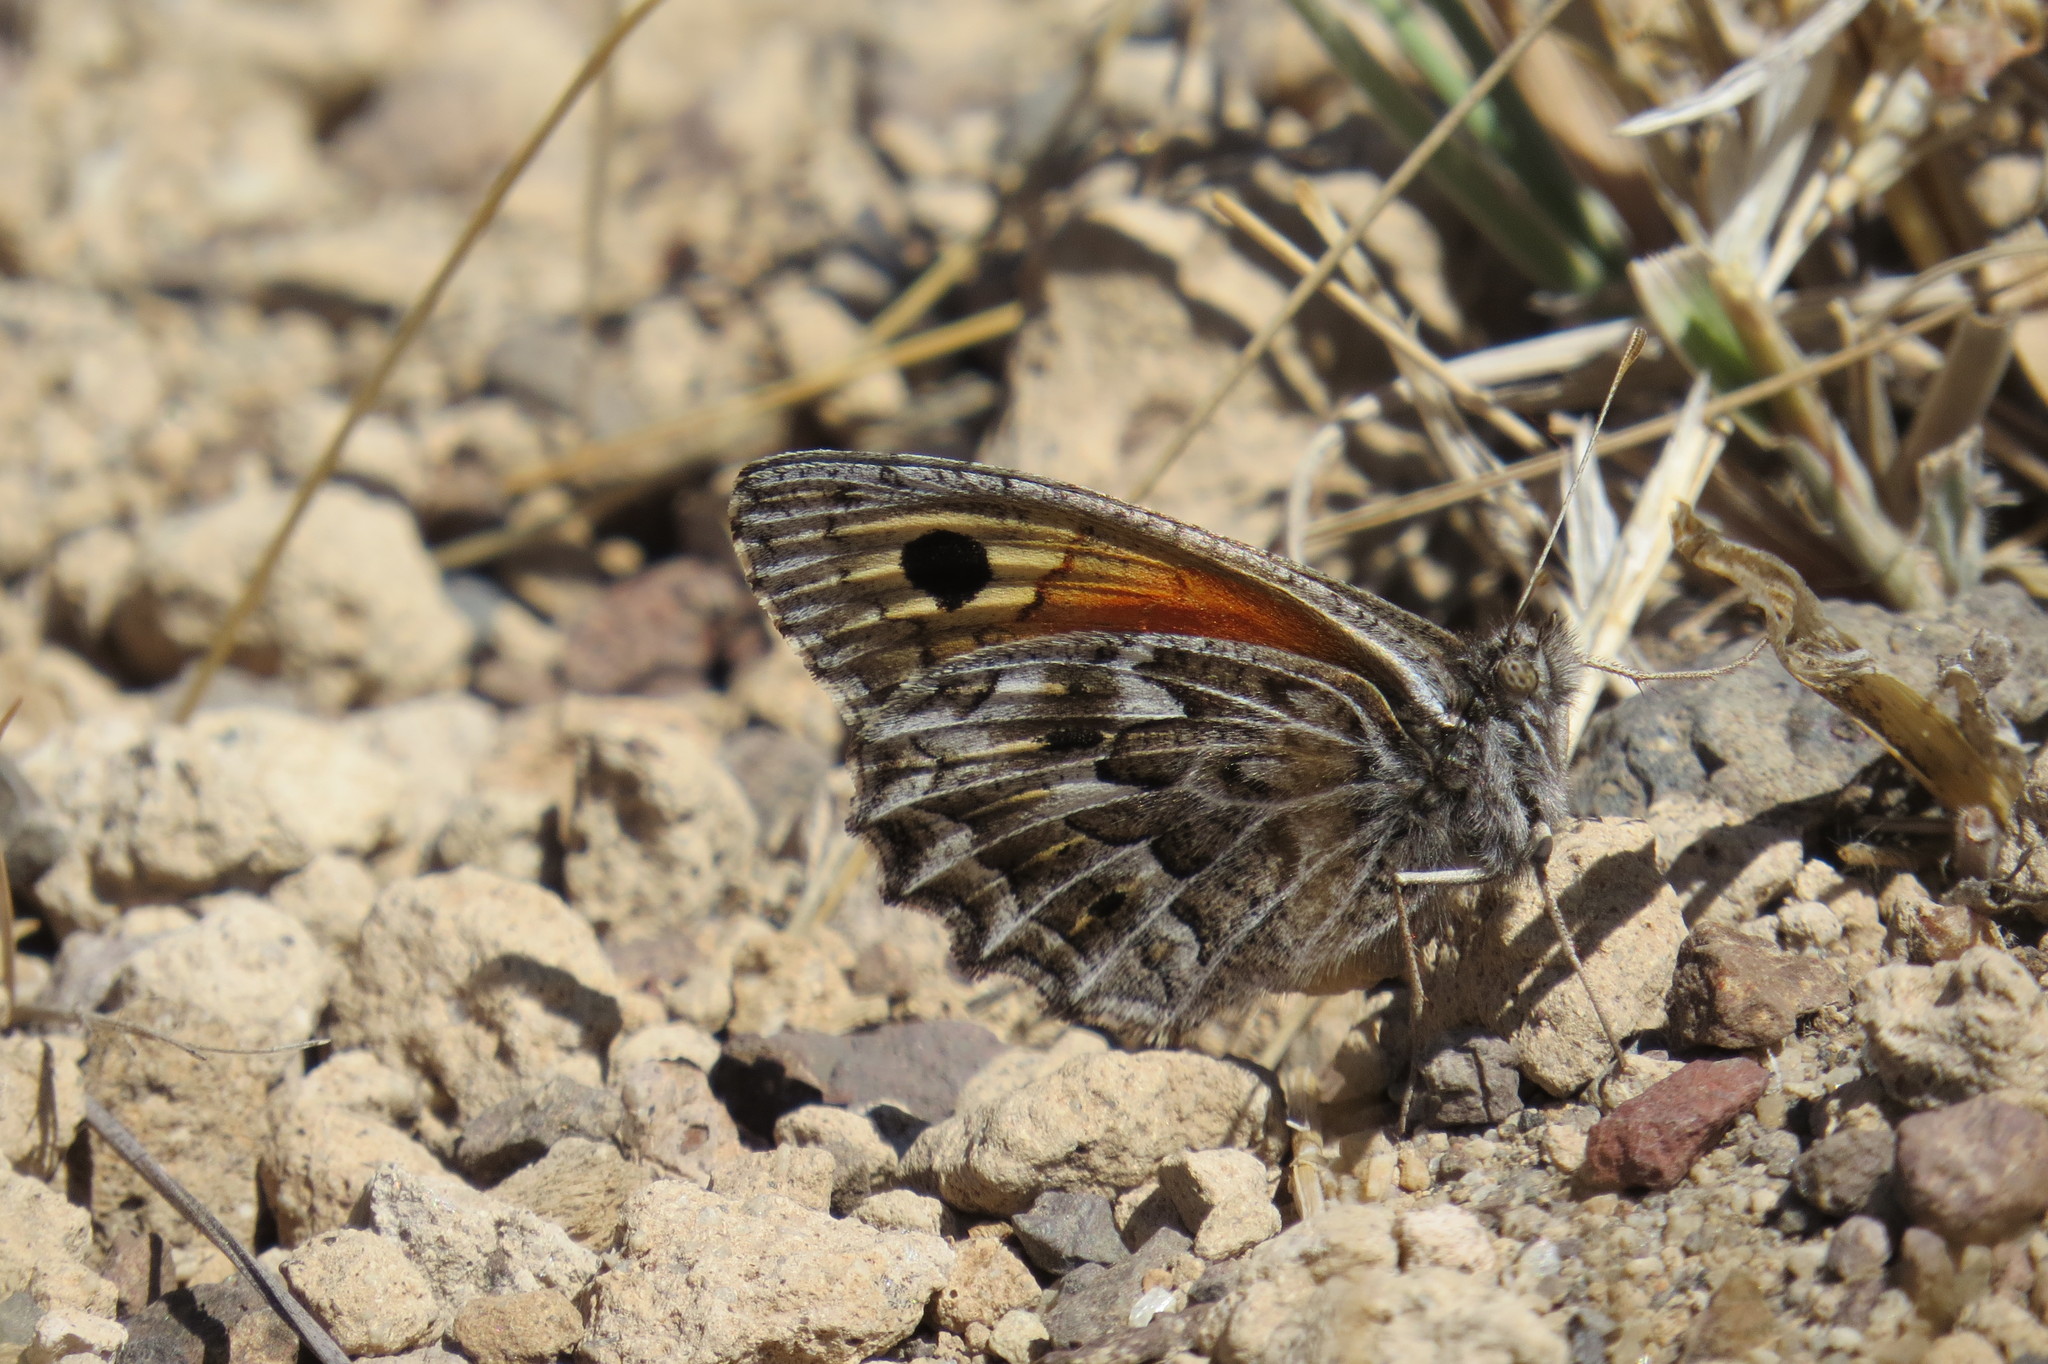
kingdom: Animalia
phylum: Arthropoda
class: Insecta
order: Lepidoptera
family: Nymphalidae
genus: Argyrophorus
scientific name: Argyrophorus
